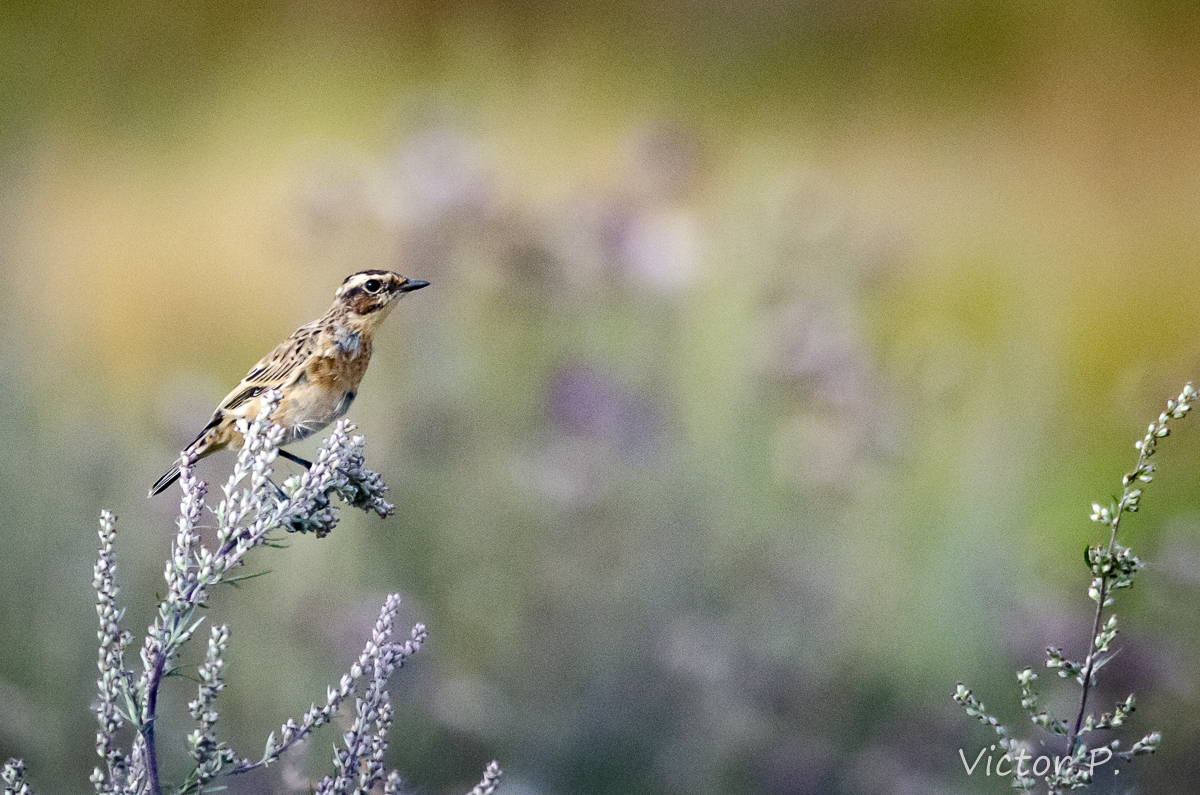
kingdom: Animalia
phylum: Chordata
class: Aves
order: Passeriformes
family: Muscicapidae
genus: Saxicola
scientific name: Saxicola rubetra
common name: Whinchat
